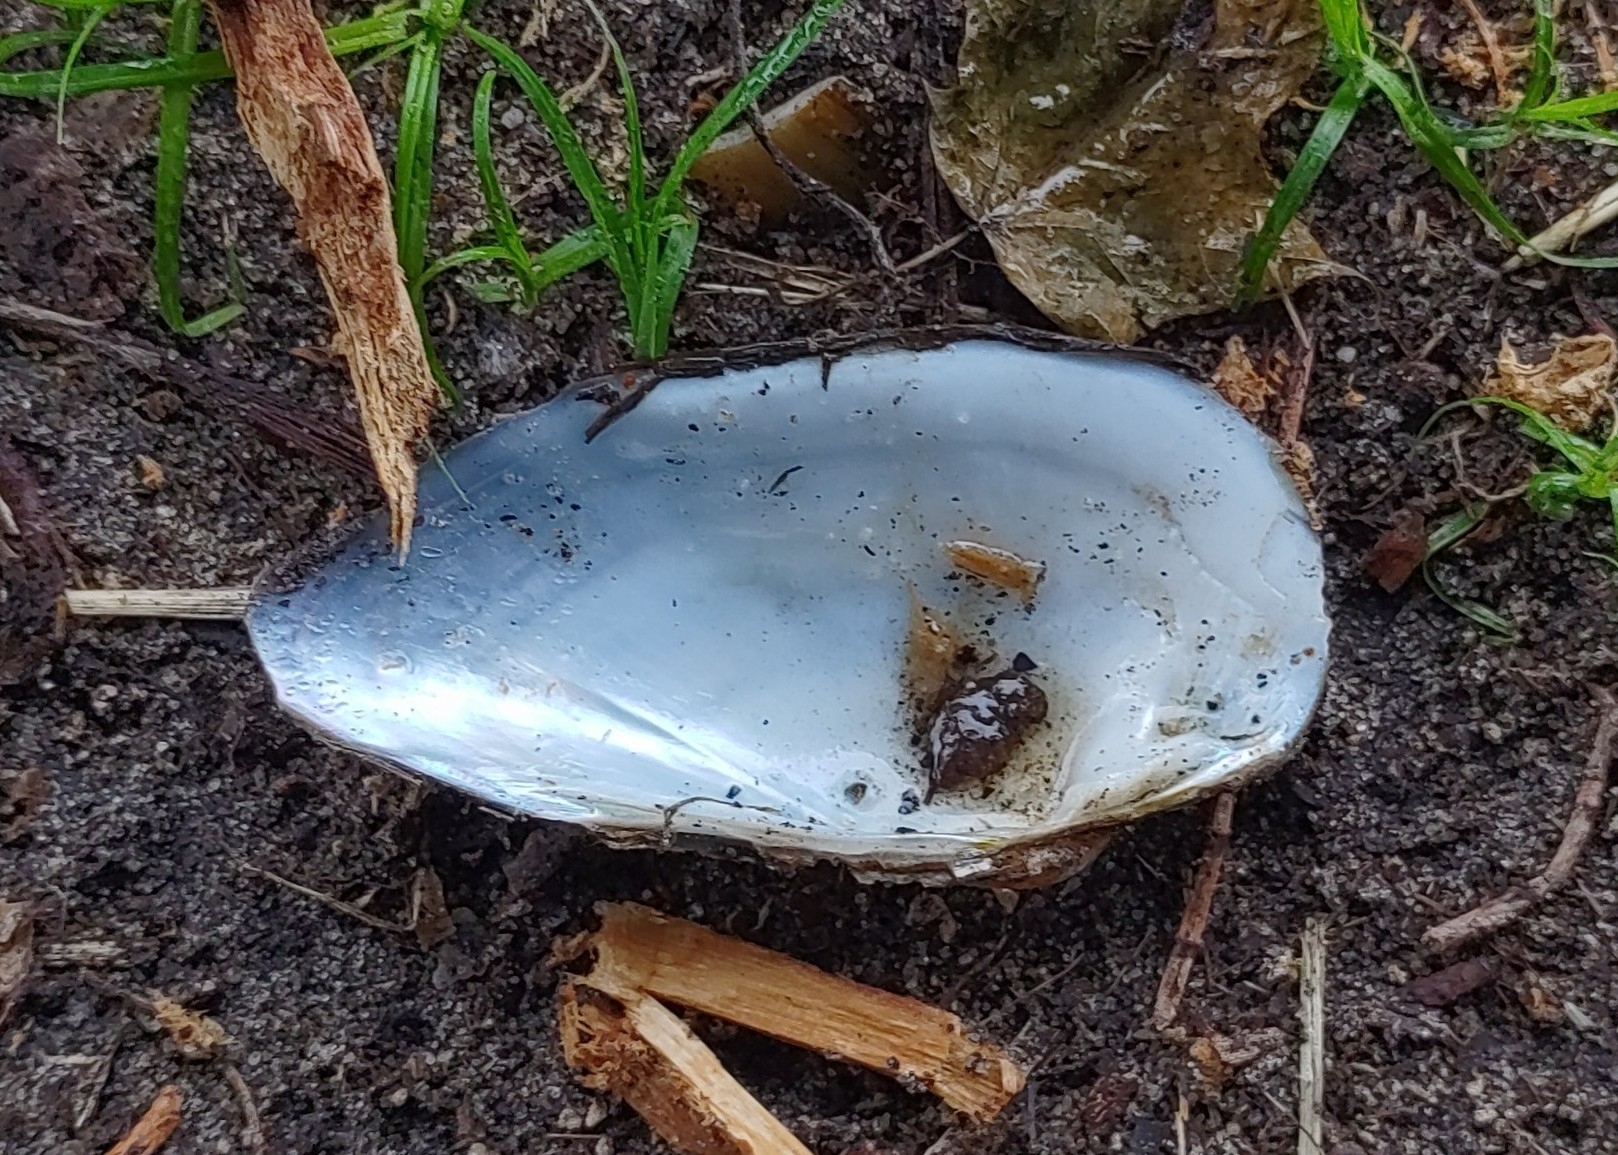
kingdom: Animalia
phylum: Mollusca
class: Bivalvia
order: Unionida
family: Unionidae
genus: Unio
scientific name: Unio tumidus
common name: Swollen river mussel
